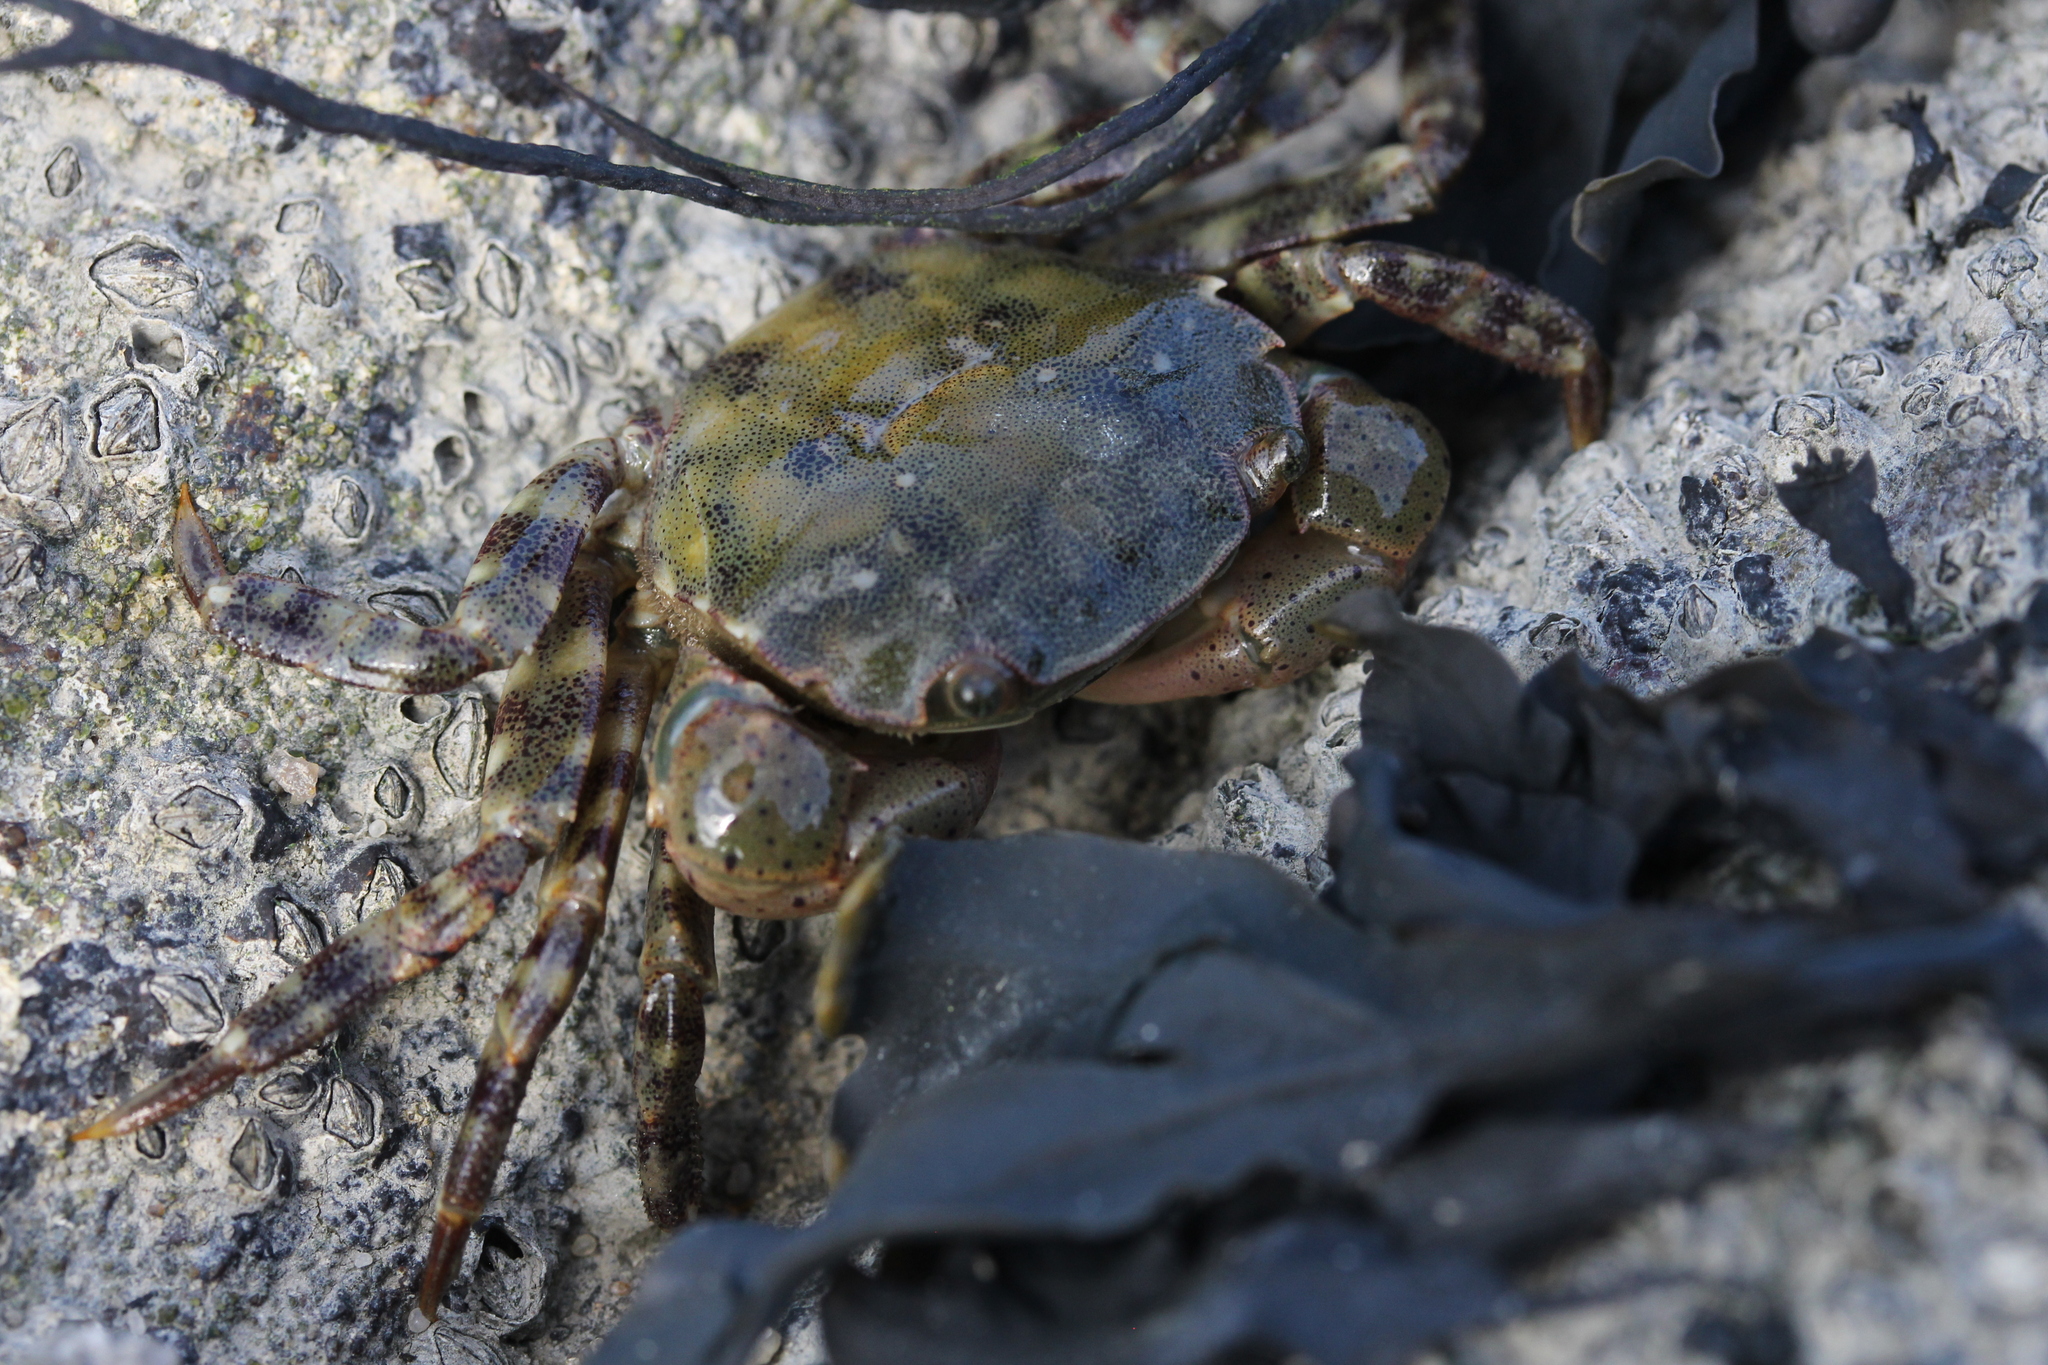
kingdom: Animalia
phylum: Arthropoda
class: Malacostraca
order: Decapoda
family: Varunidae
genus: Hemigrapsus
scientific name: Hemigrapsus sanguineus
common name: Asian shore crab
